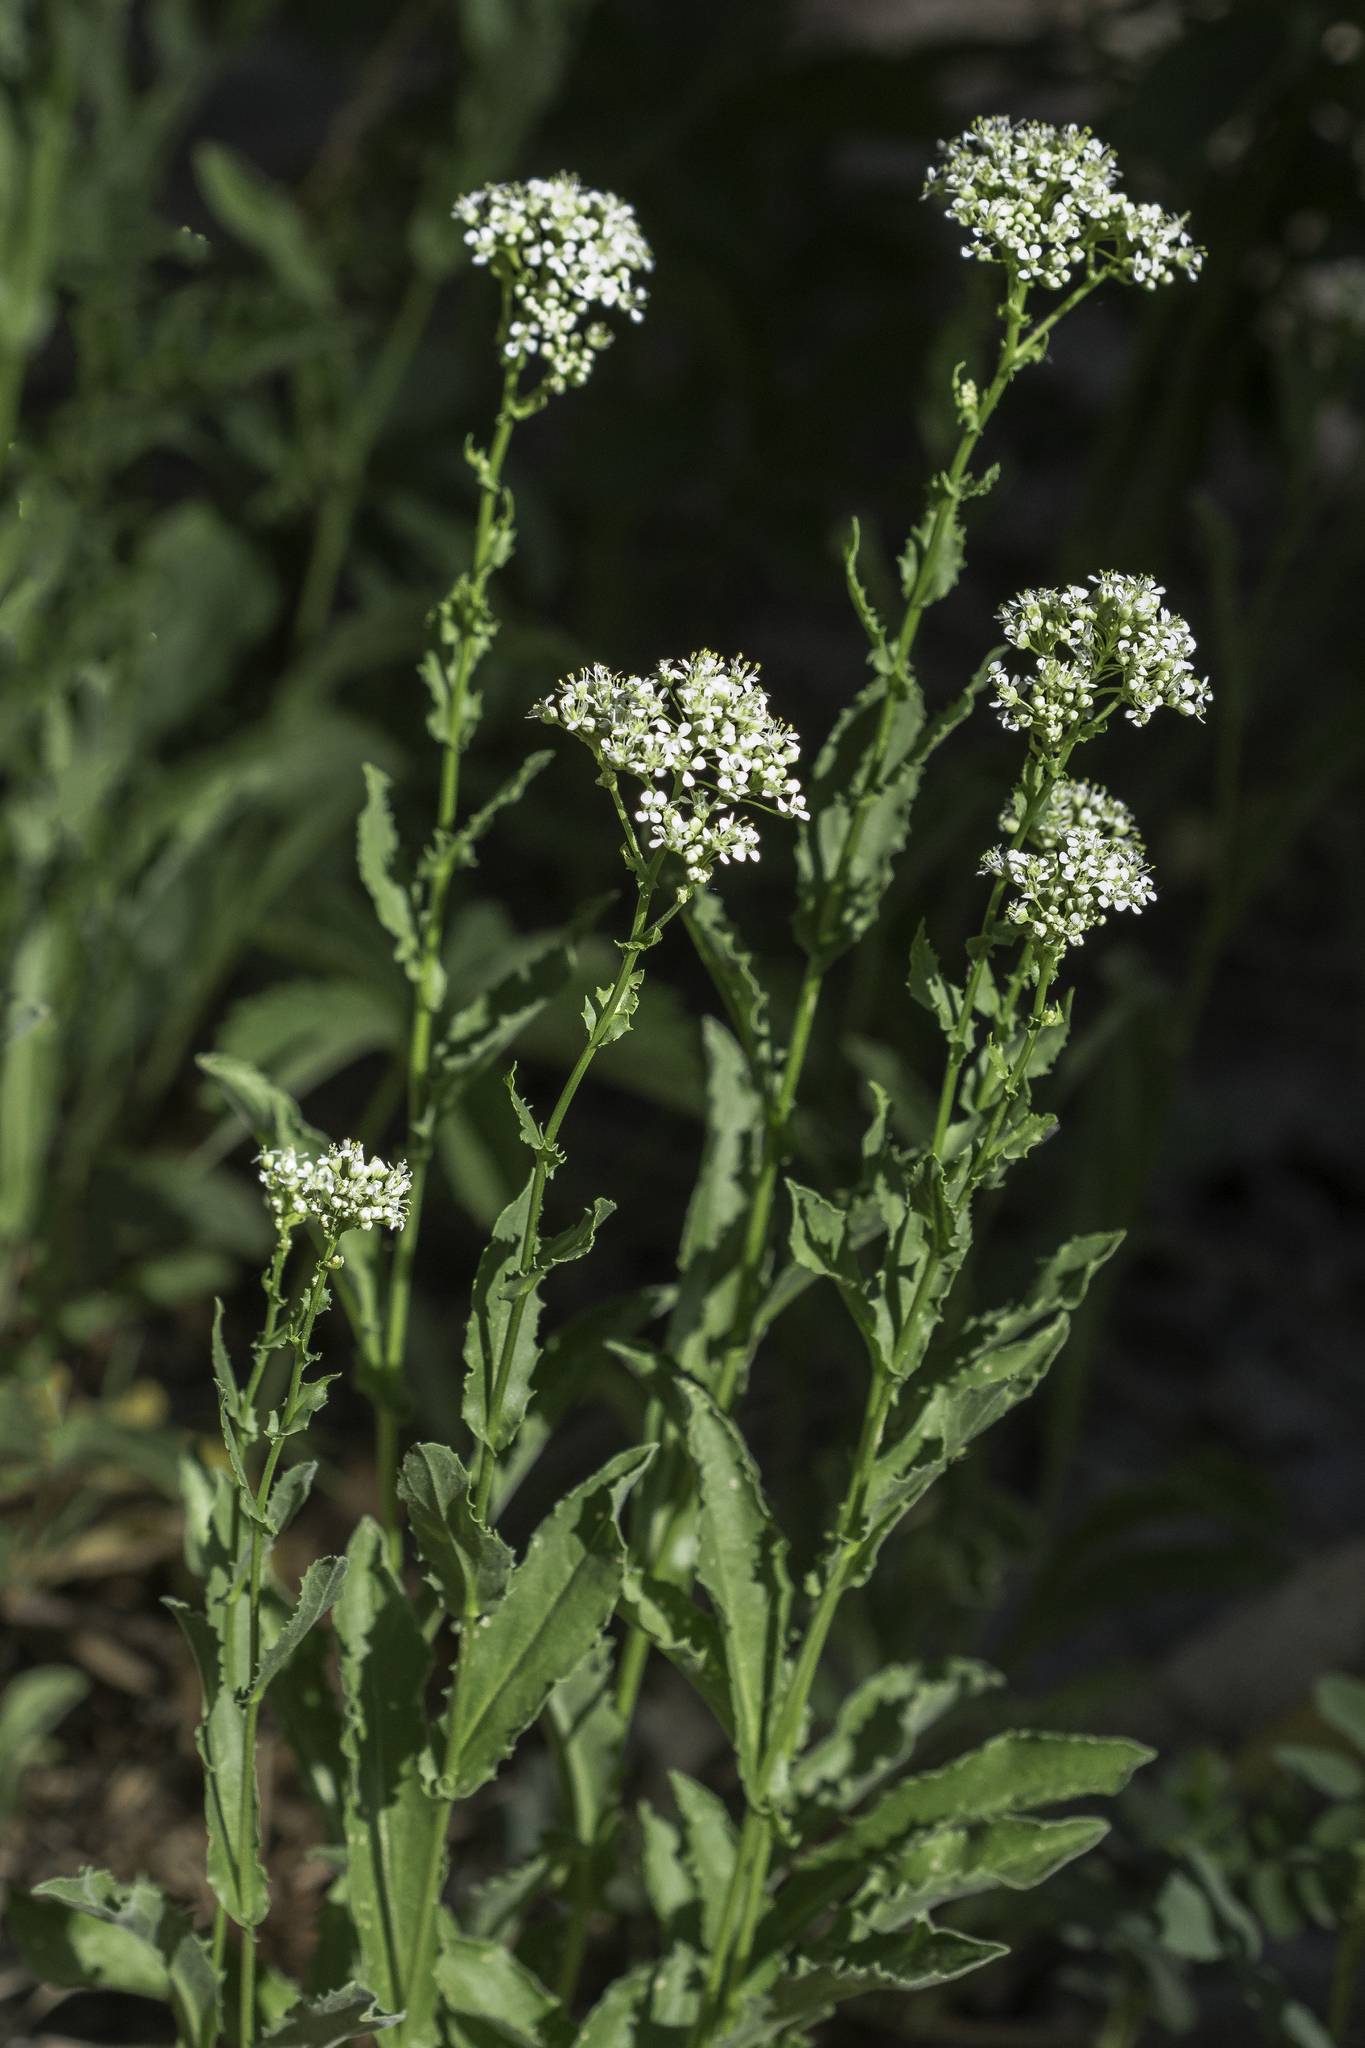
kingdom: Plantae
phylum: Tracheophyta
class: Magnoliopsida
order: Brassicales
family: Brassicaceae
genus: Lepidium
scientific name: Lepidium draba
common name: Hoary cress
